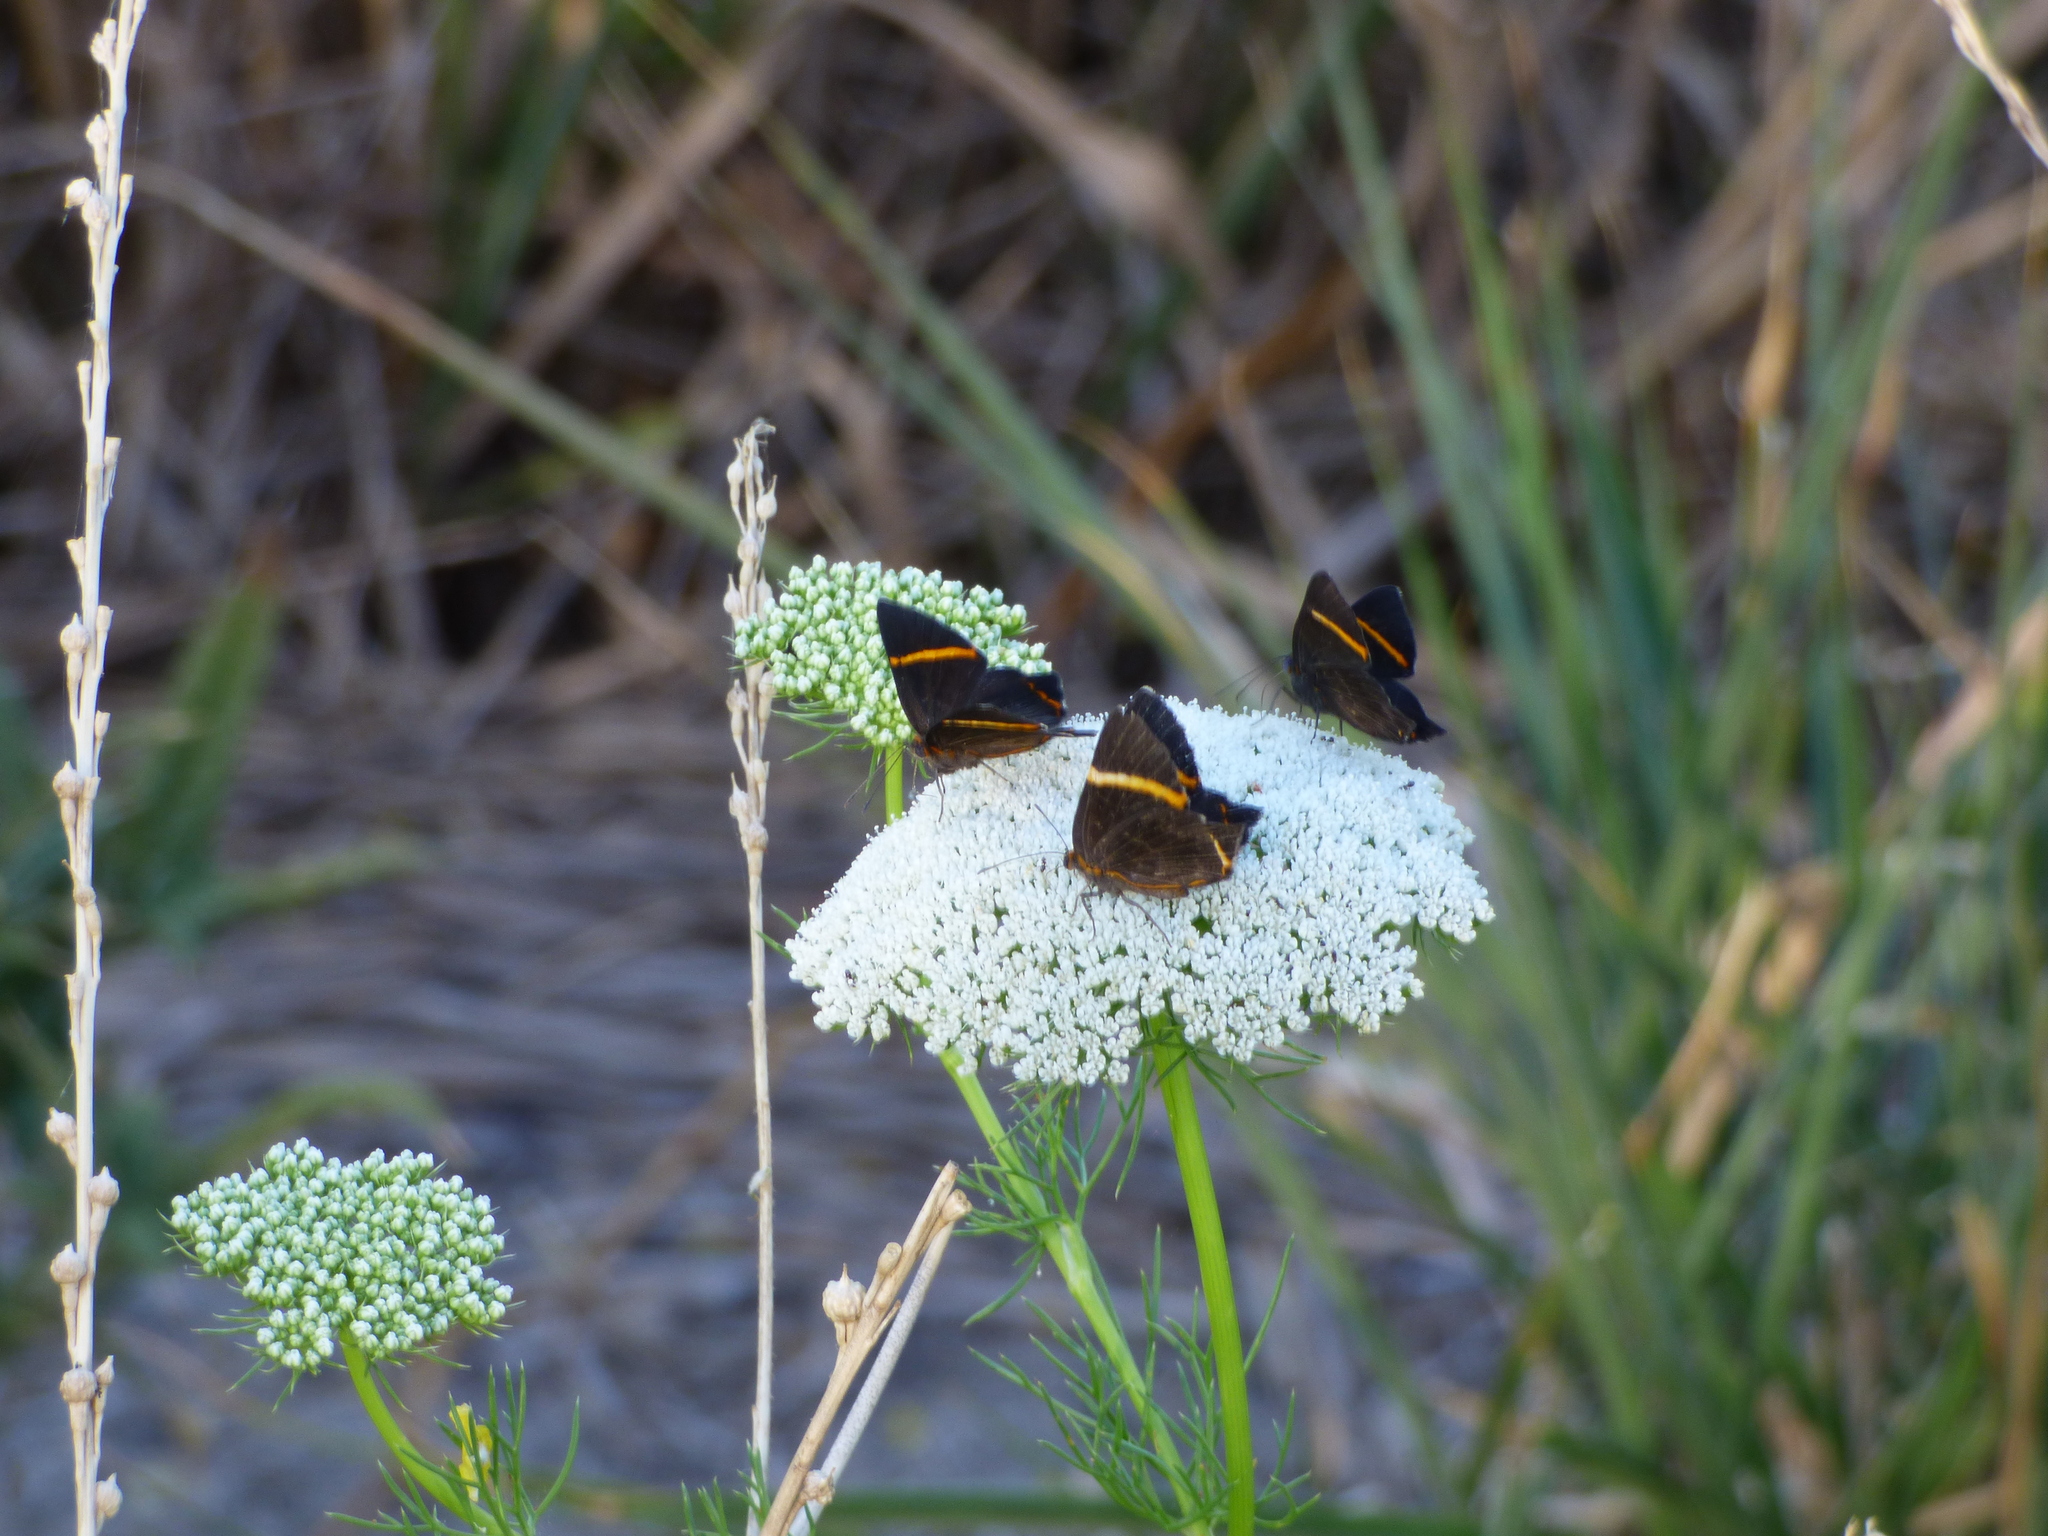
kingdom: Animalia
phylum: Arthropoda
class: Insecta
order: Lepidoptera
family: Riodinidae
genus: Riodina
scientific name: Riodina lysippoides
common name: Little dancer metalmark
